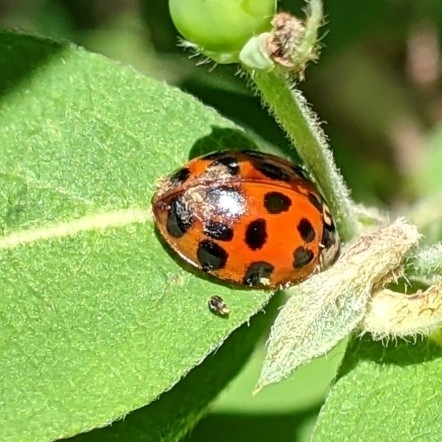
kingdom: Animalia
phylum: Arthropoda
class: Insecta
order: Coleoptera
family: Coccinellidae
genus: Harmonia
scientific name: Harmonia axyridis
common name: Harlequin ladybird
